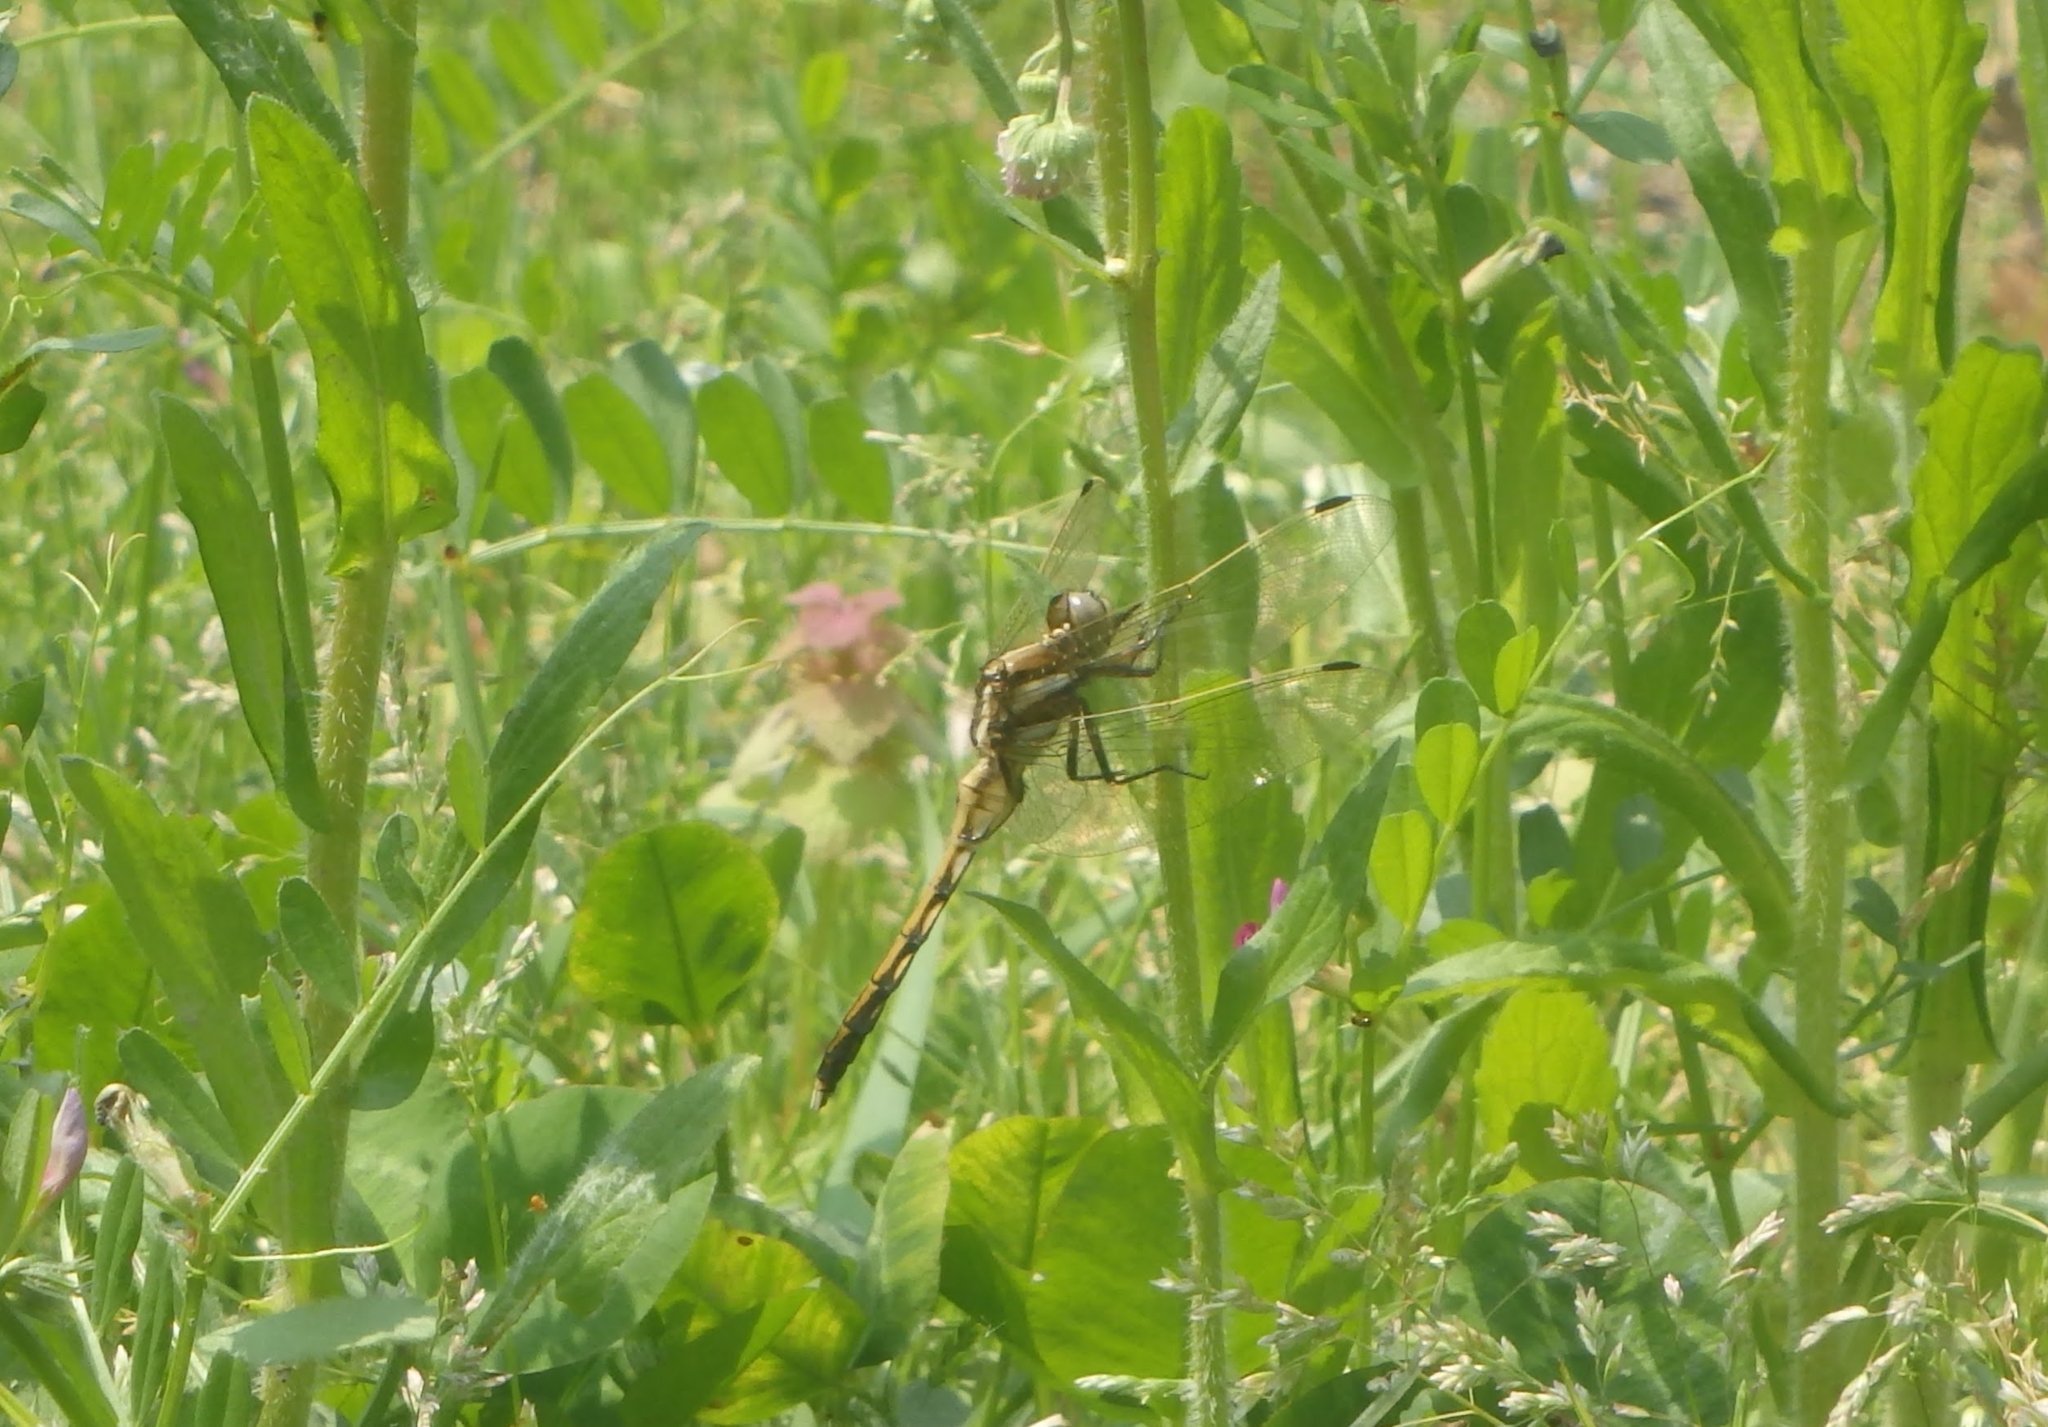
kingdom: Animalia
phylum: Arthropoda
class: Insecta
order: Odonata
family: Libellulidae
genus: Orthetrum
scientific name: Orthetrum albistylum
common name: White-tailed skimmer
